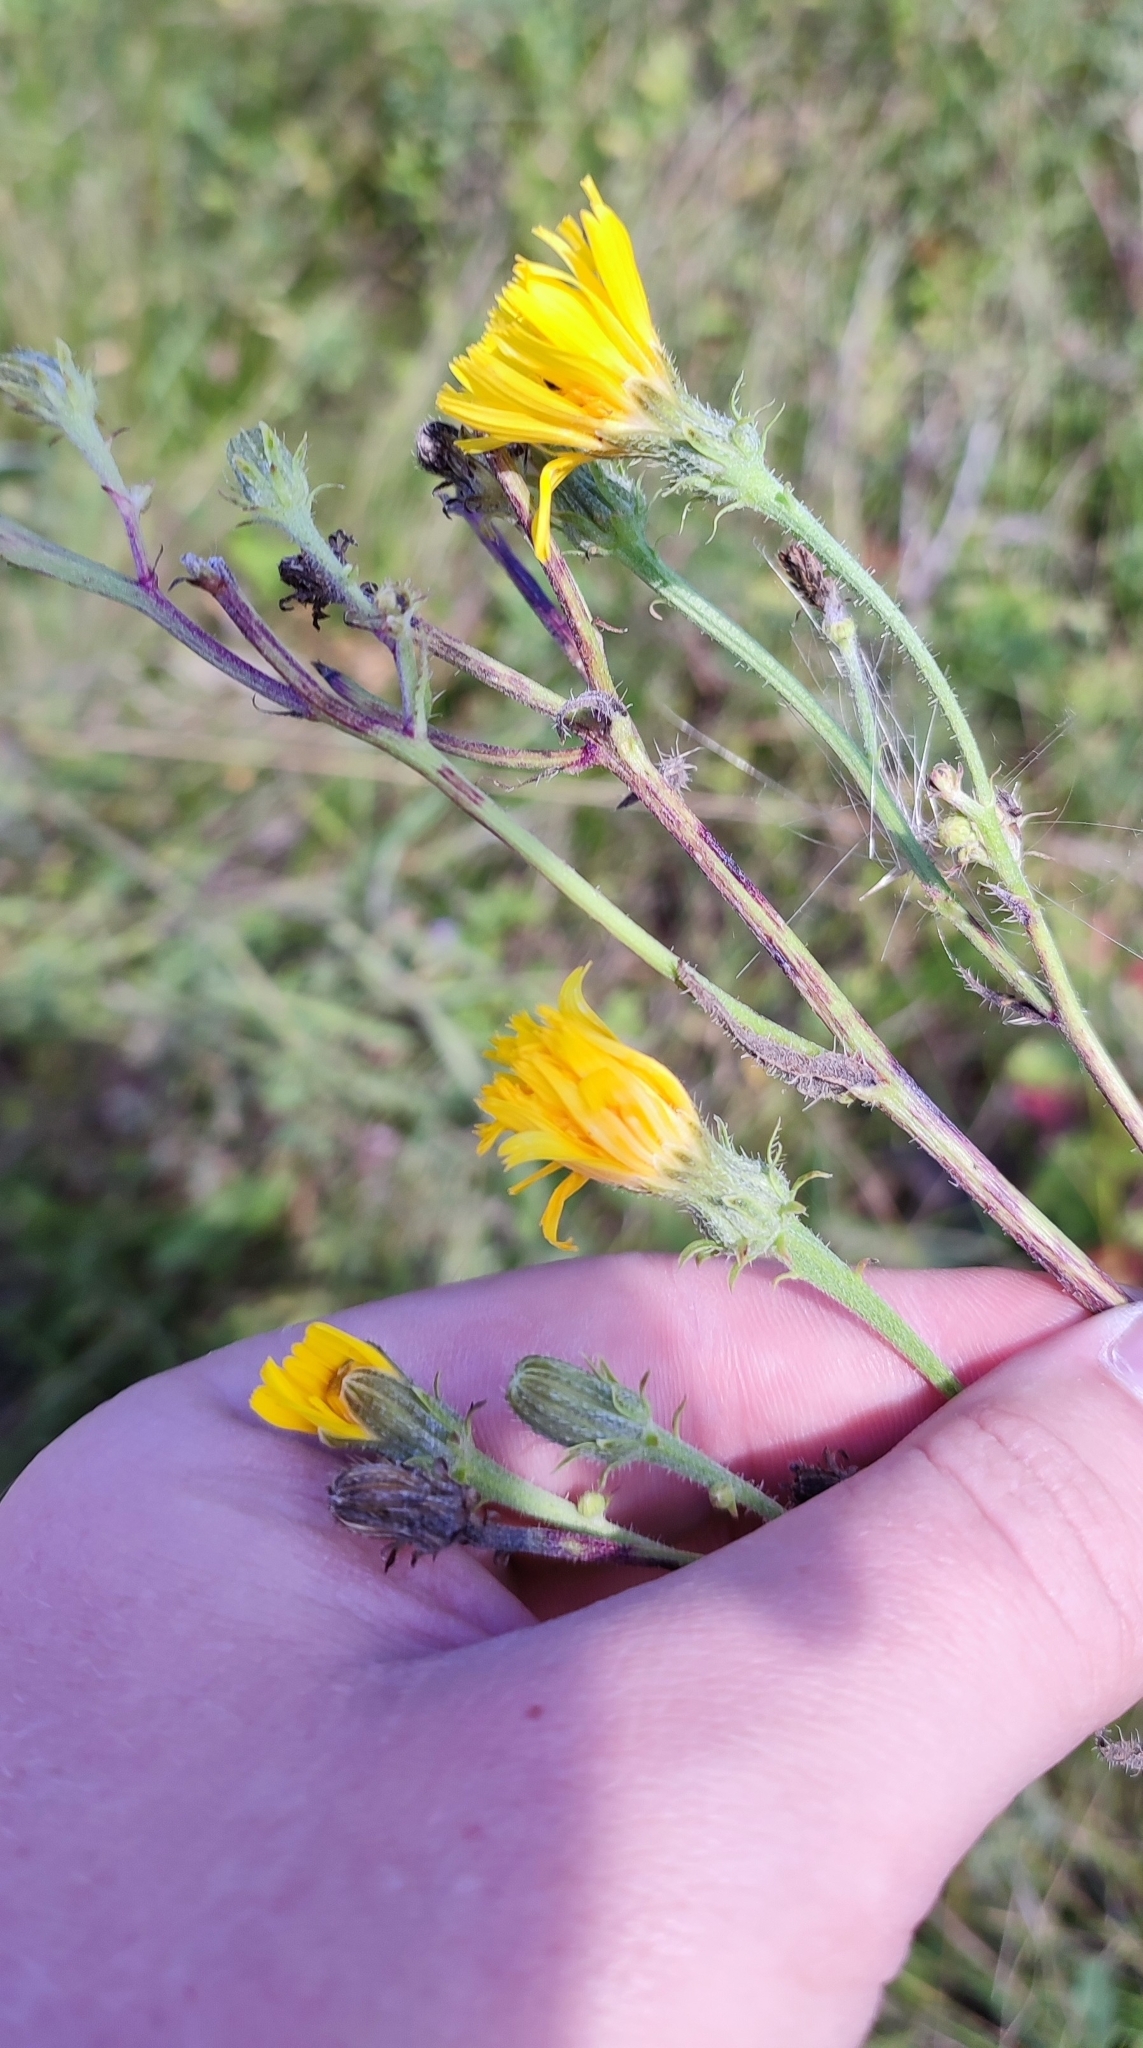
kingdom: Plantae
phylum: Tracheophyta
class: Magnoliopsida
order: Asterales
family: Asteraceae
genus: Picris
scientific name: Picris hieracioides
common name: Hawkweed oxtongue
